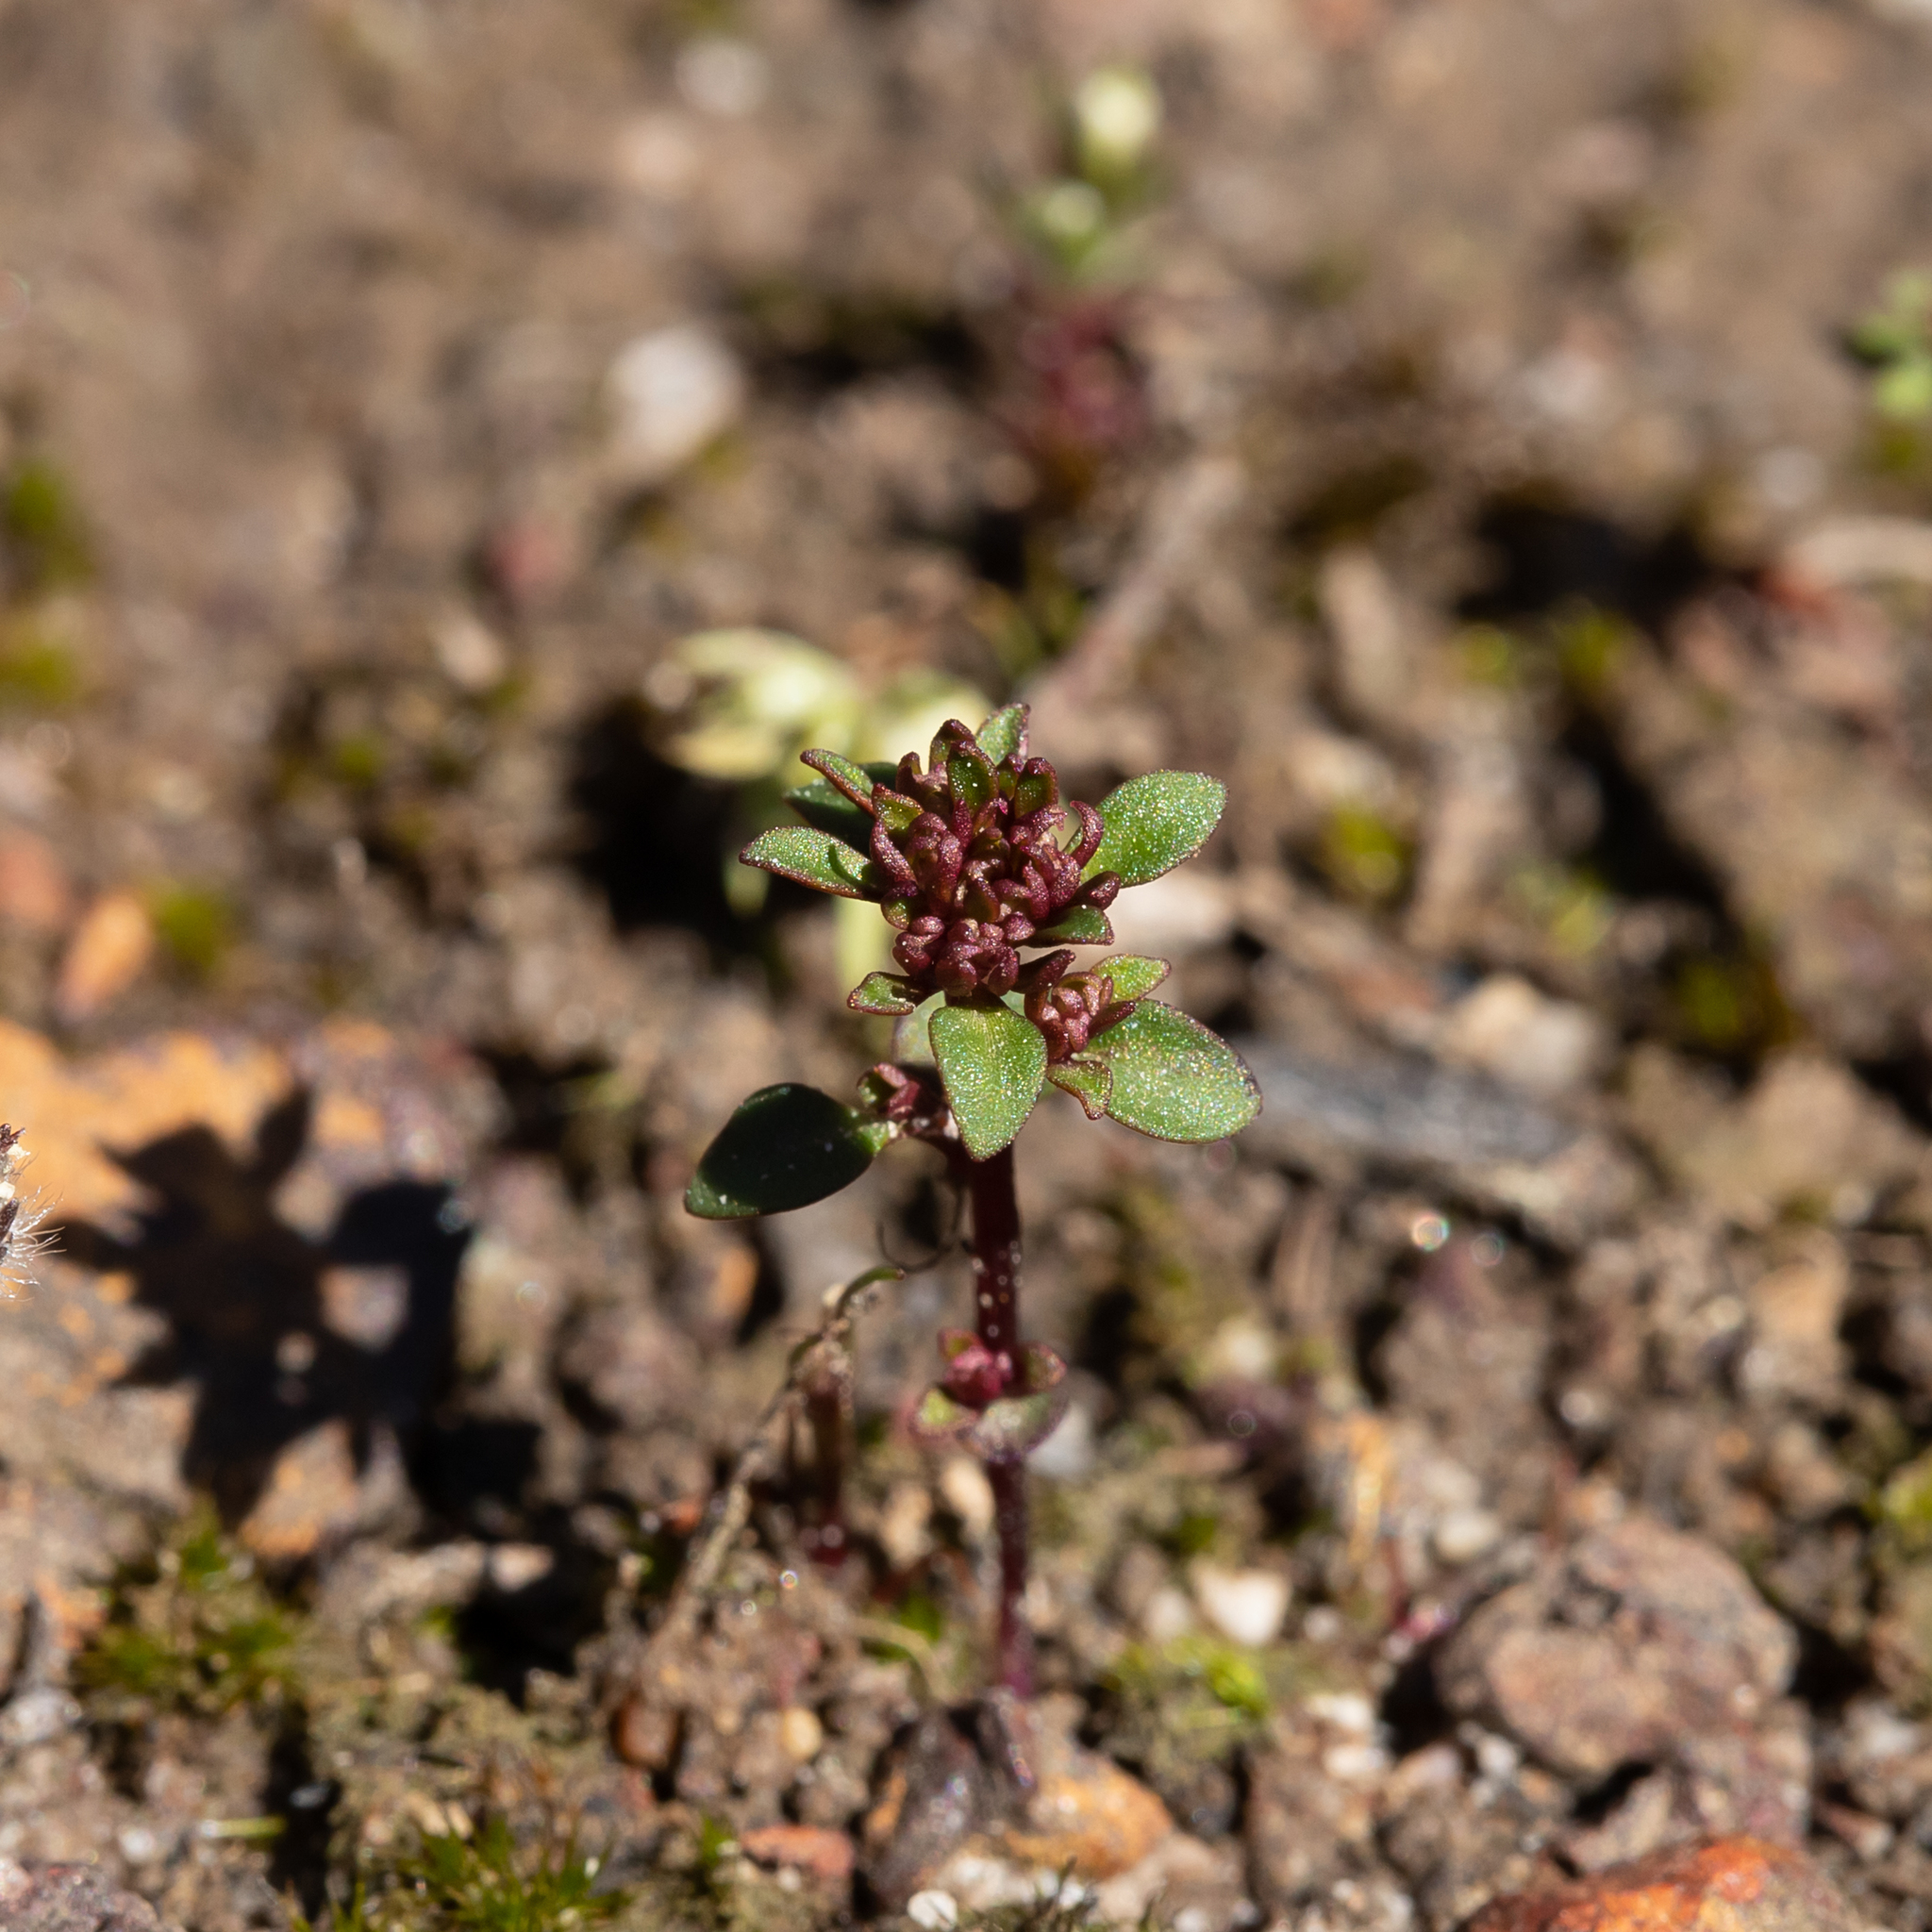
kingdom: Plantae
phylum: Tracheophyta
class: Magnoliopsida
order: Asterales
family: Stylidiaceae
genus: Levenhookia
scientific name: Levenhookia pusilla
